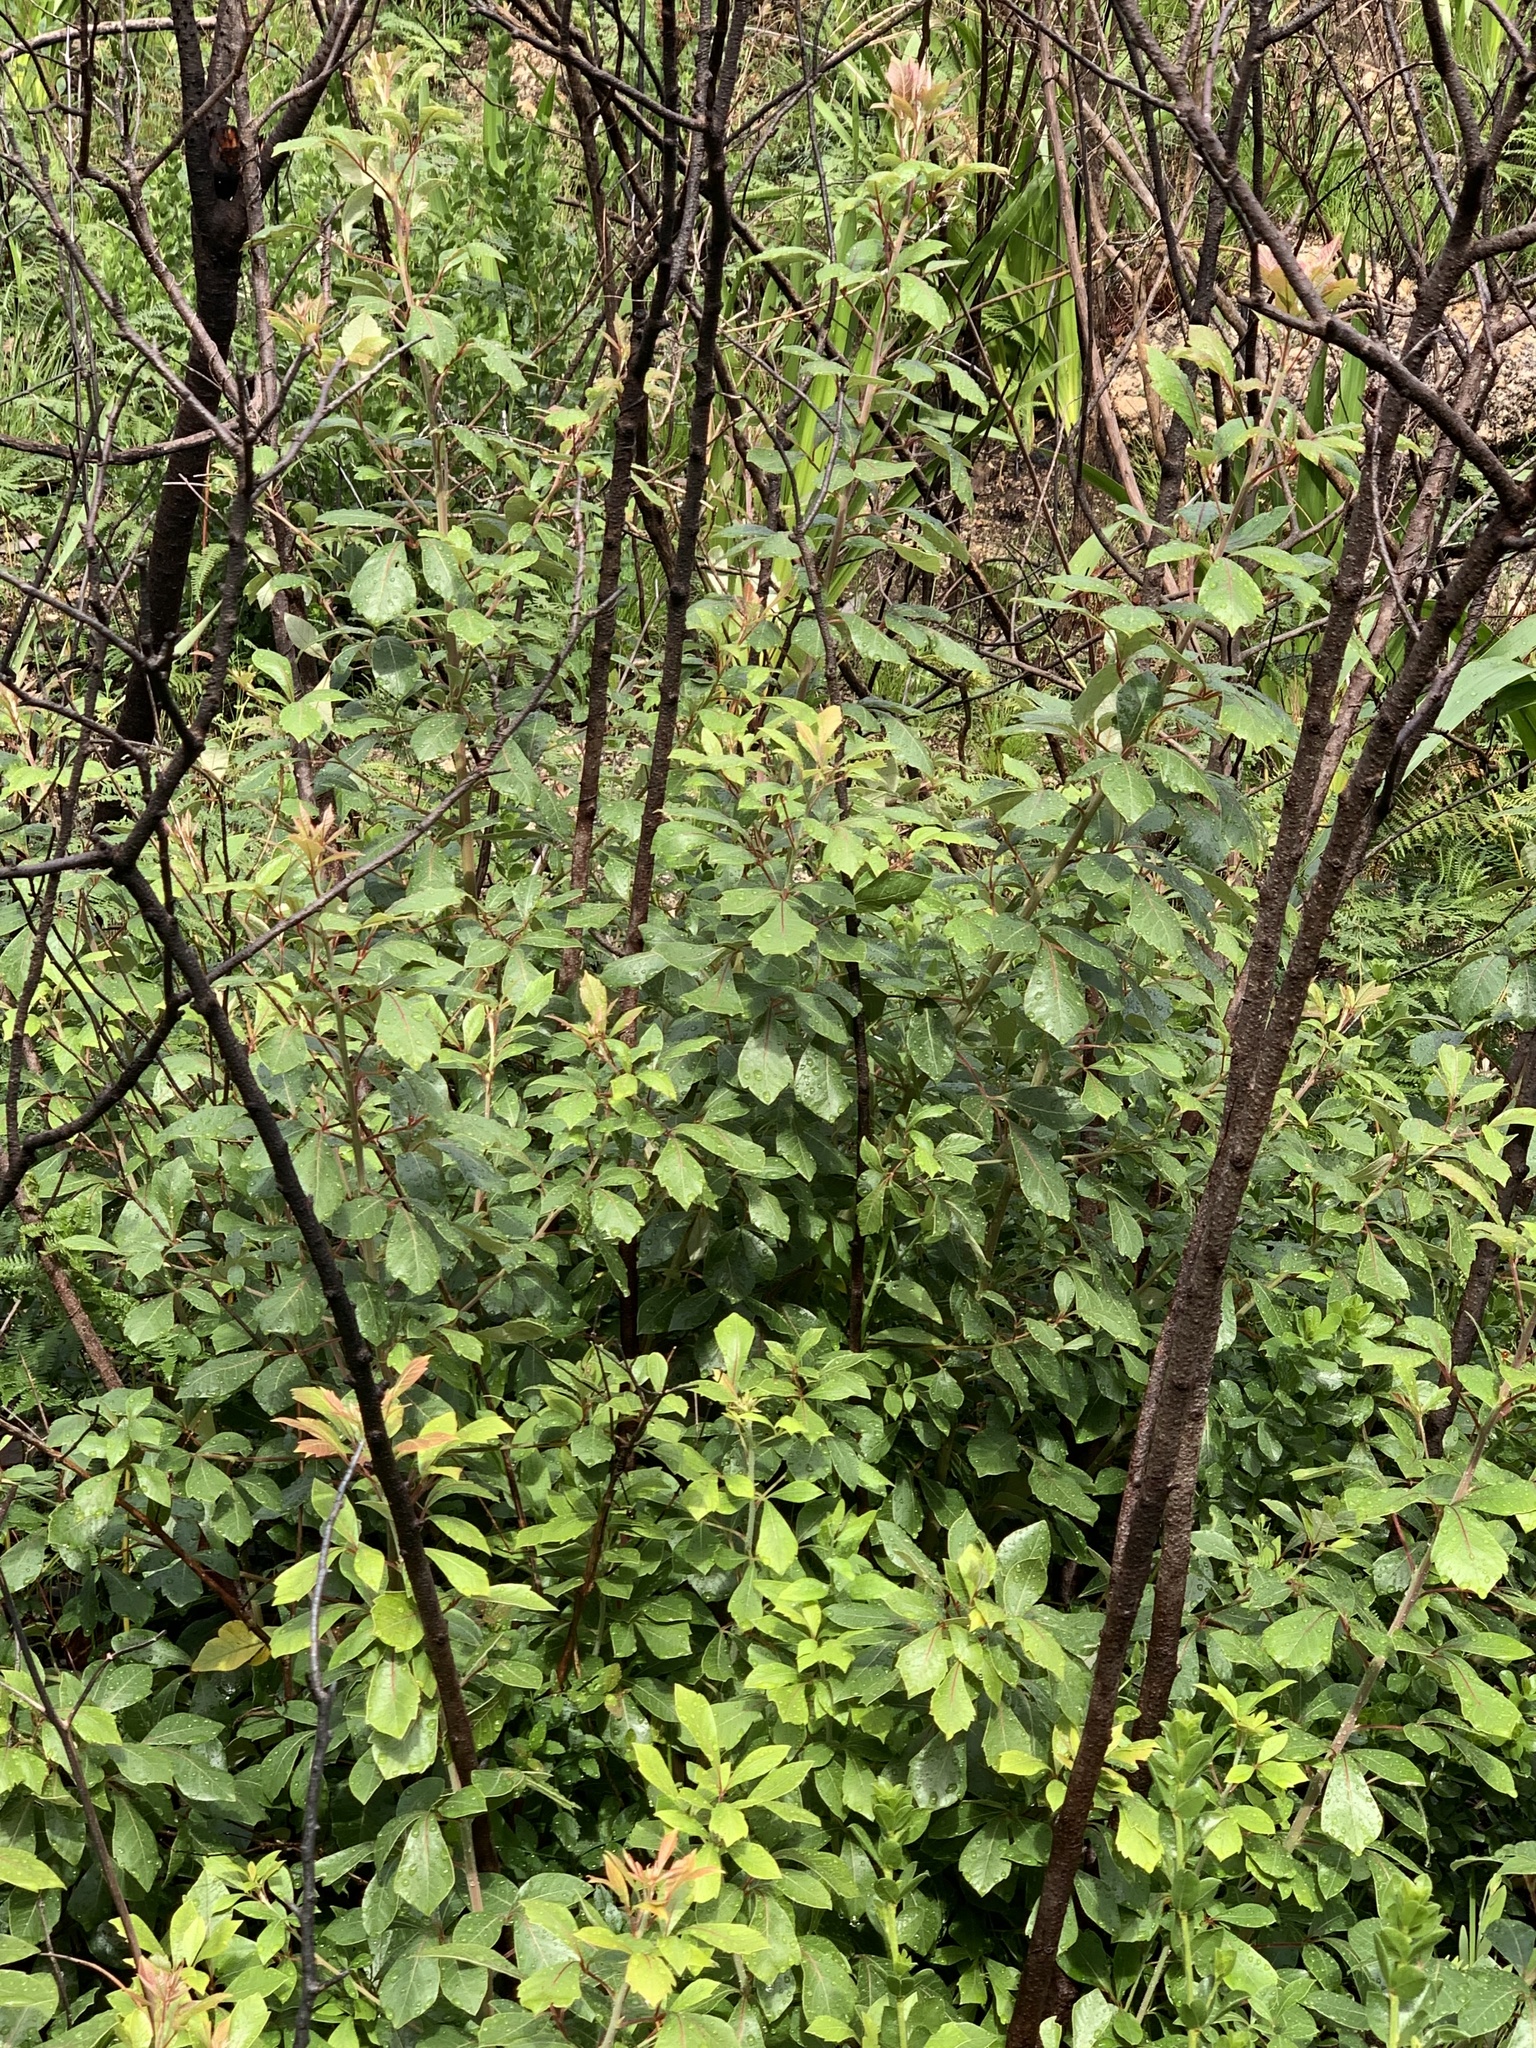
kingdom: Plantae
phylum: Tracheophyta
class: Magnoliopsida
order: Sapindales
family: Anacardiaceae
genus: Searsia
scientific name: Searsia tomentosa
